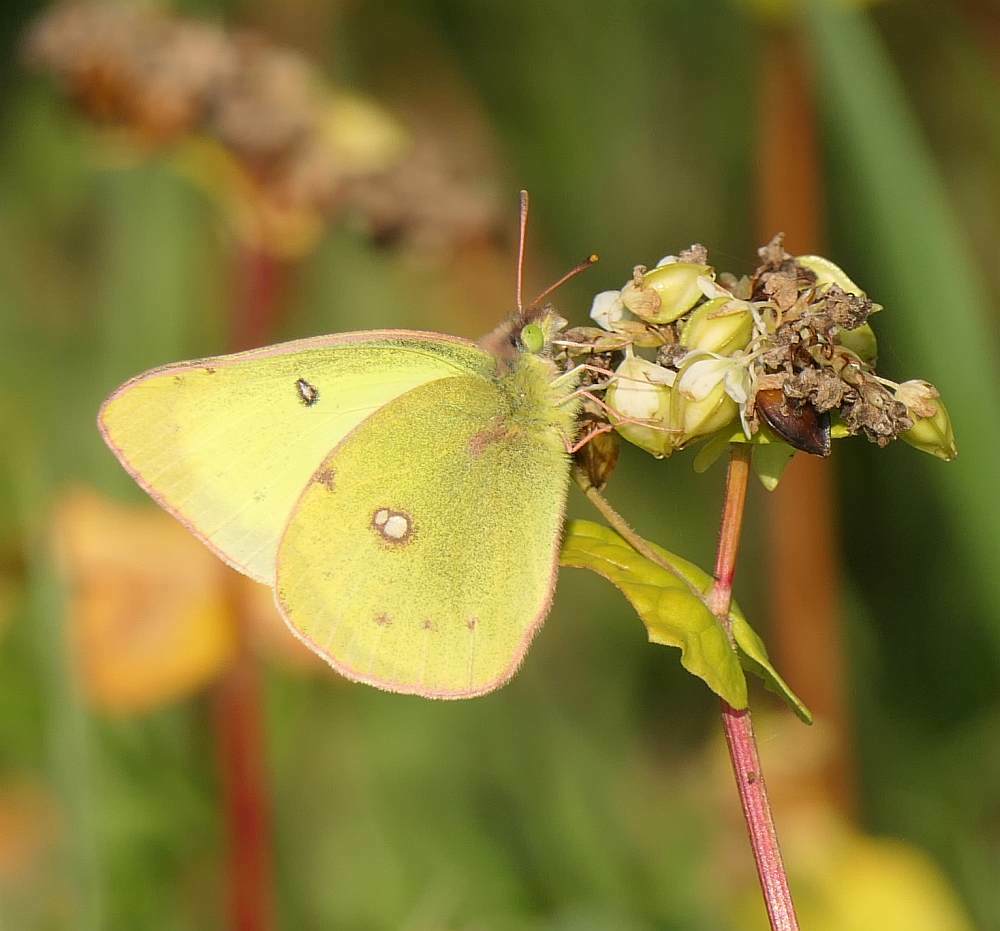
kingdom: Animalia
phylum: Arthropoda
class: Insecta
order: Lepidoptera
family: Pieridae
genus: Colias
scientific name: Colias philodice
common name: Clouded sulphur
